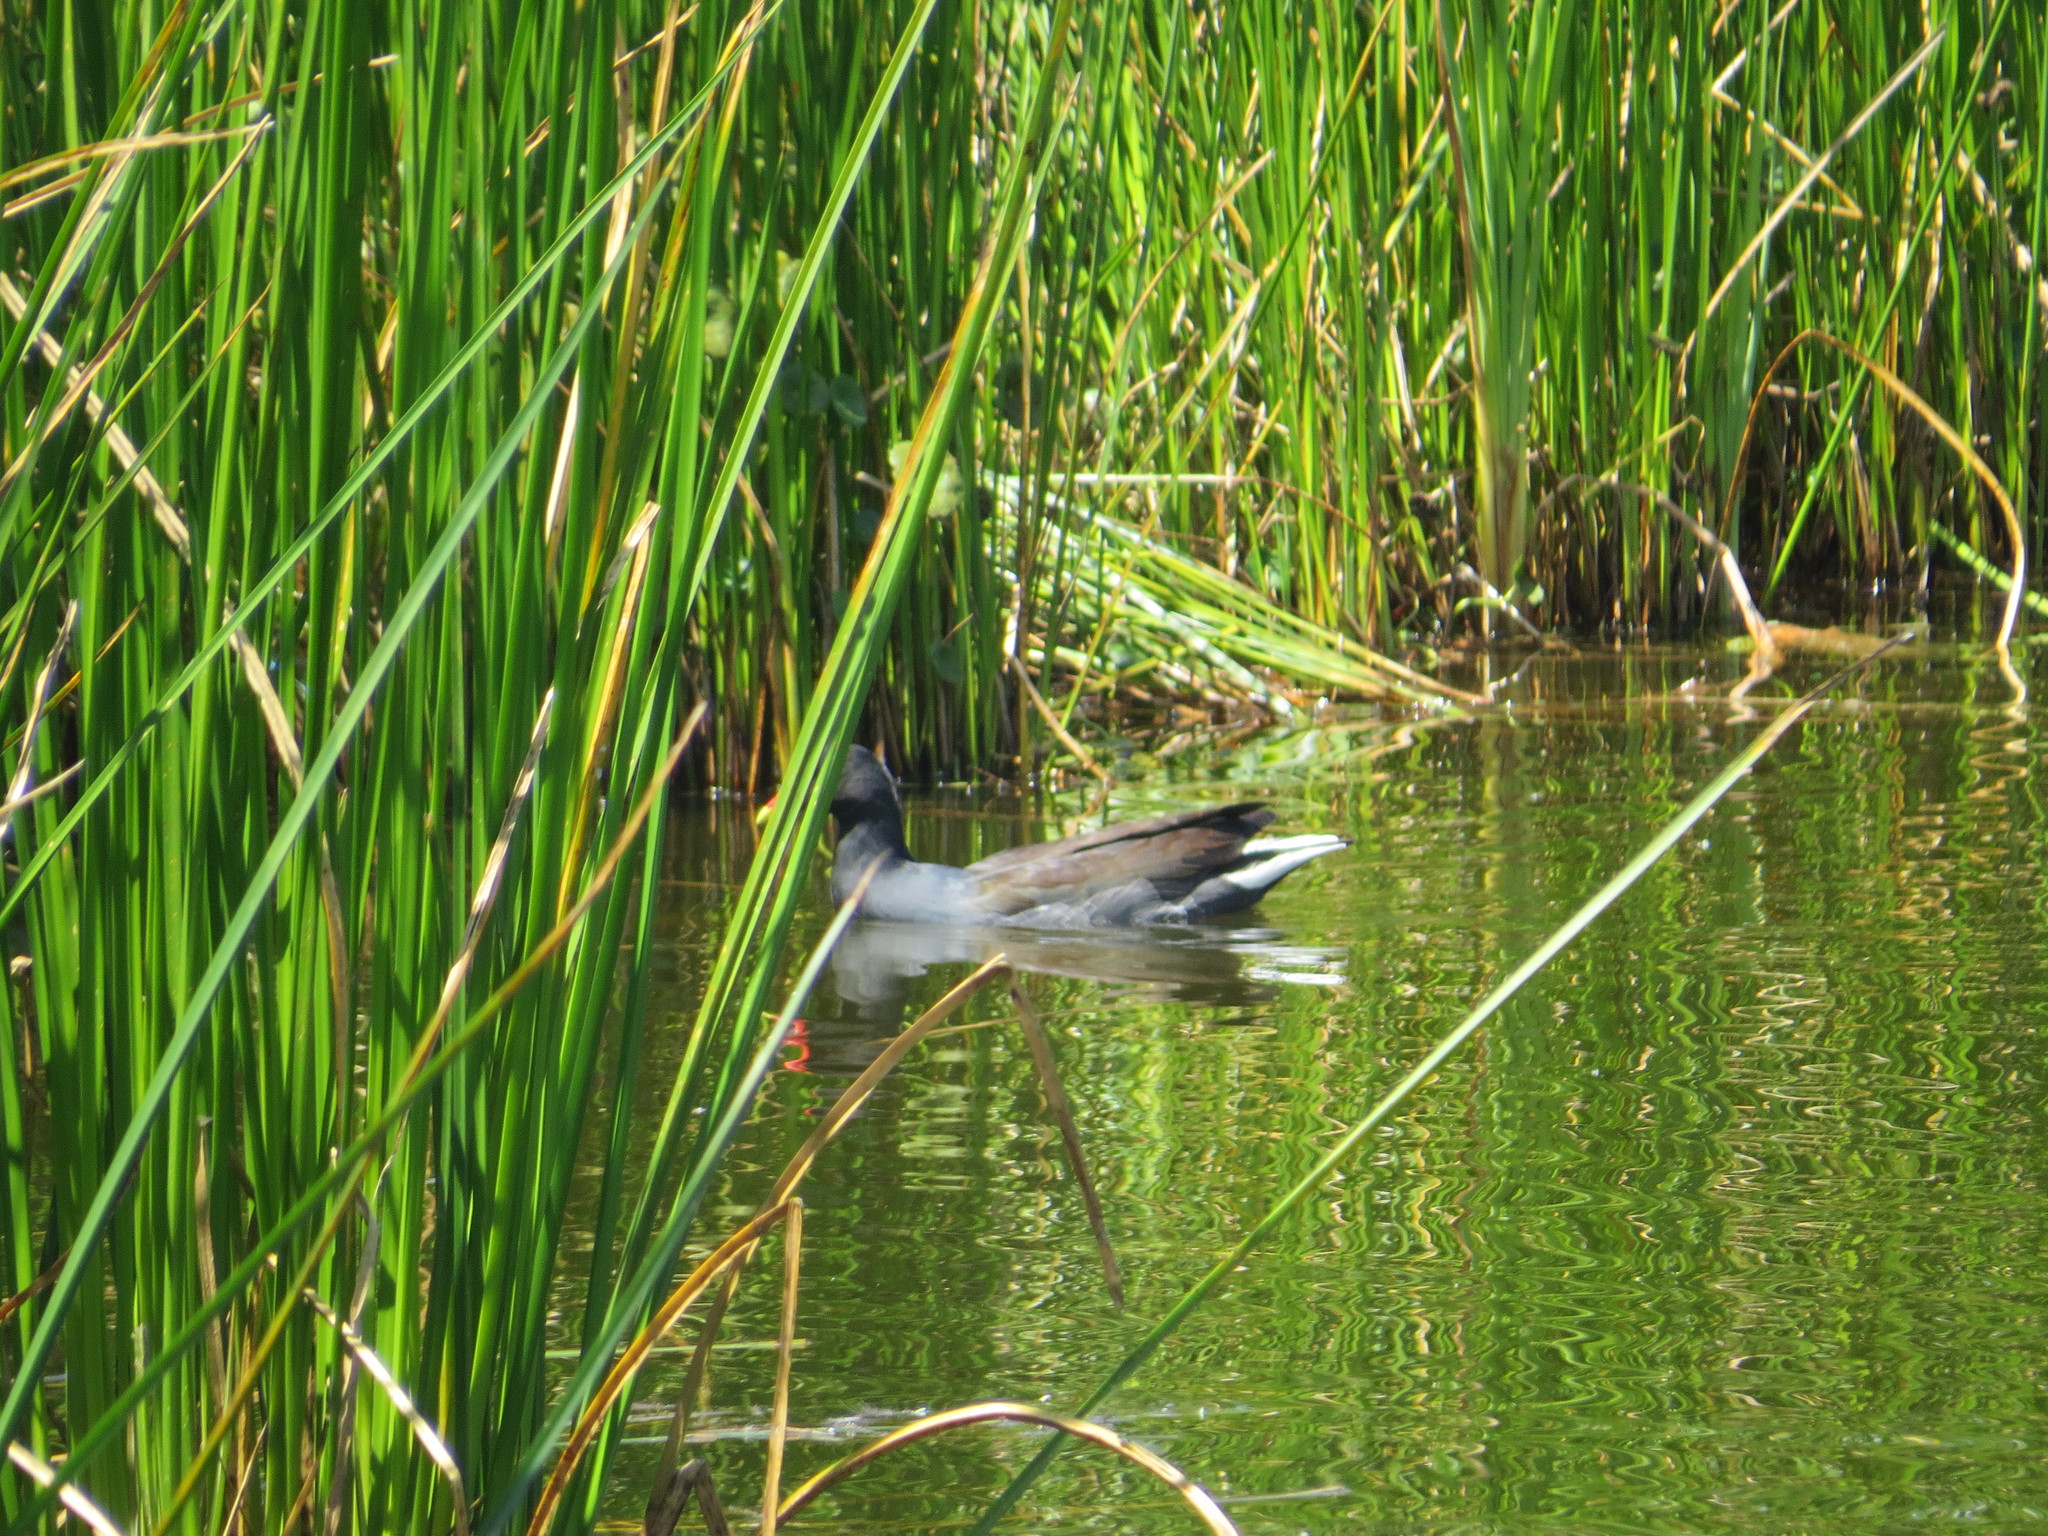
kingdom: Animalia
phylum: Chordata
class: Aves
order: Gruiformes
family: Rallidae
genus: Gallinula
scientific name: Gallinula chloropus
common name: Common moorhen
